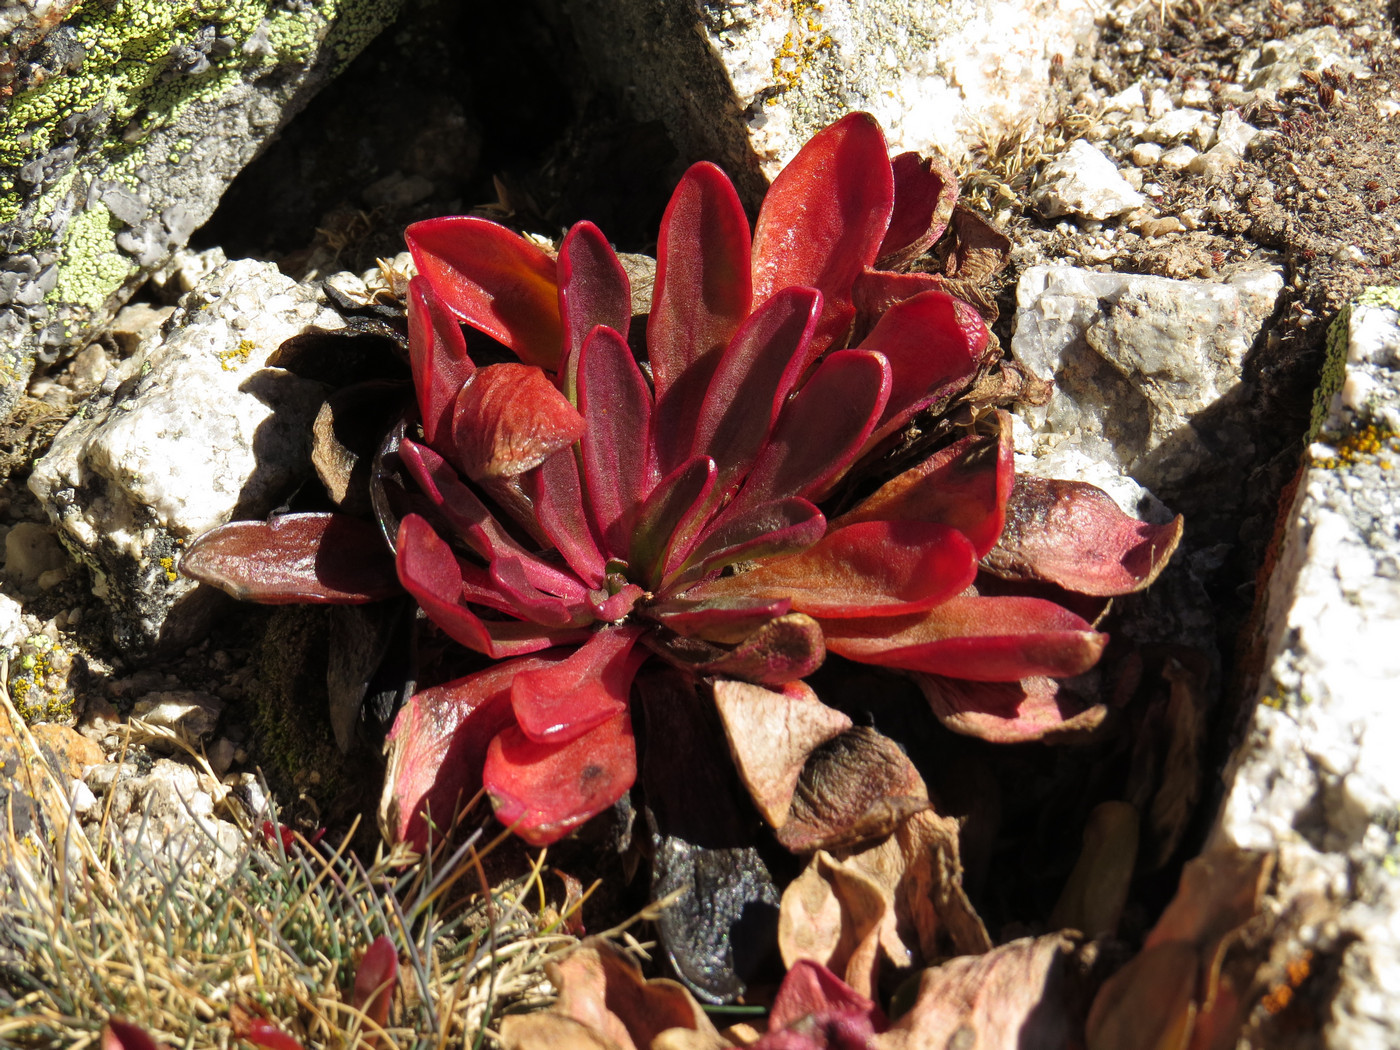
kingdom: Plantae
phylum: Tracheophyta
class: Magnoliopsida
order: Caryophyllales
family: Montiaceae
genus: Claytonia
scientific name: Claytonia megarhiza
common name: Alpine spring beauty
